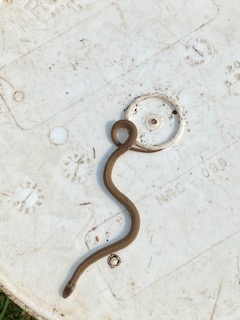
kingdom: Animalia
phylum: Chordata
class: Squamata
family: Colubridae
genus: Storeria
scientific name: Storeria dekayi
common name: (dekay’s) brown snake
